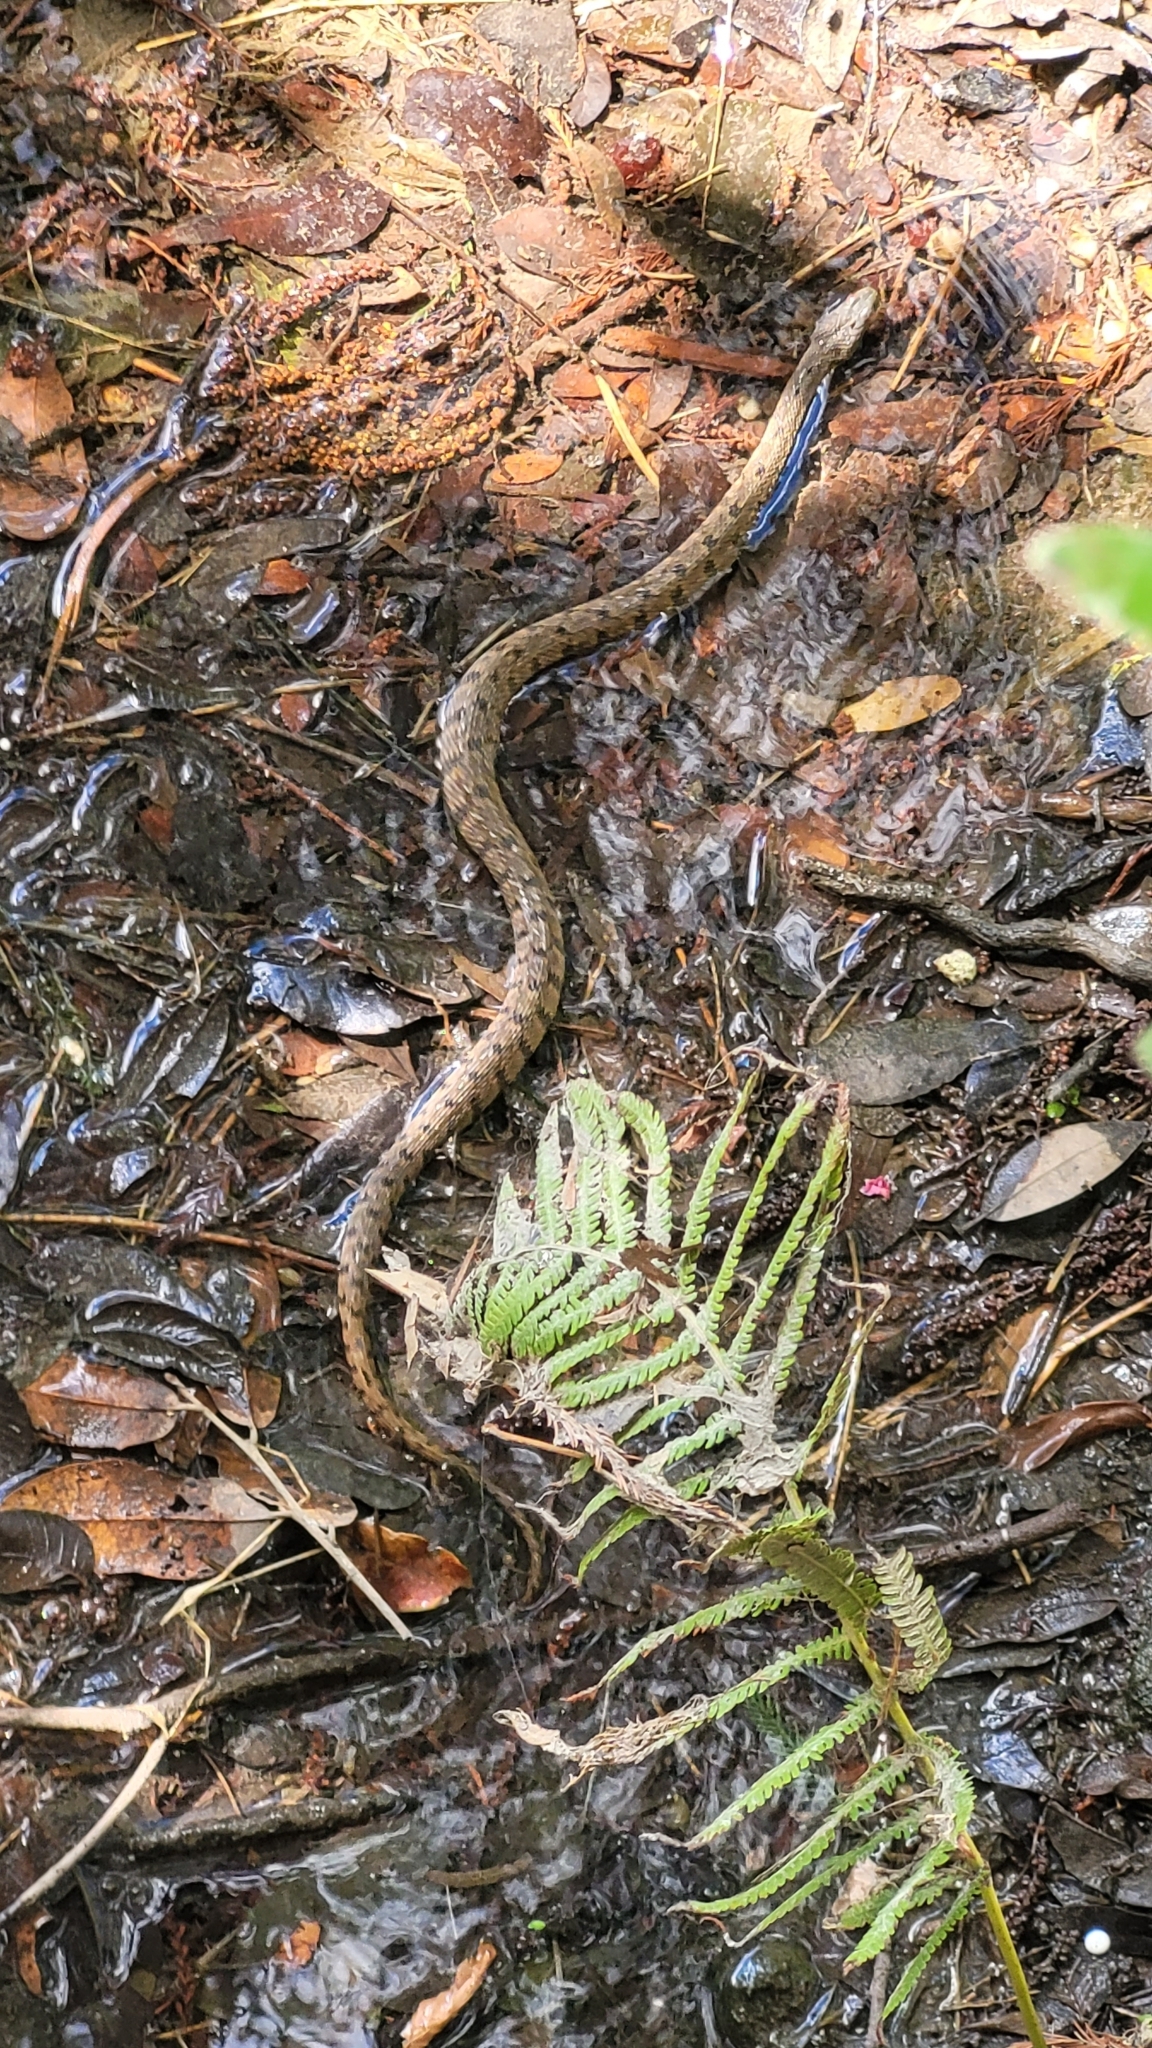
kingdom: Animalia
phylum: Chordata
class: Squamata
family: Colubridae
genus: Nerodia
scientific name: Nerodia rhombifer
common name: Diamondback water snake
